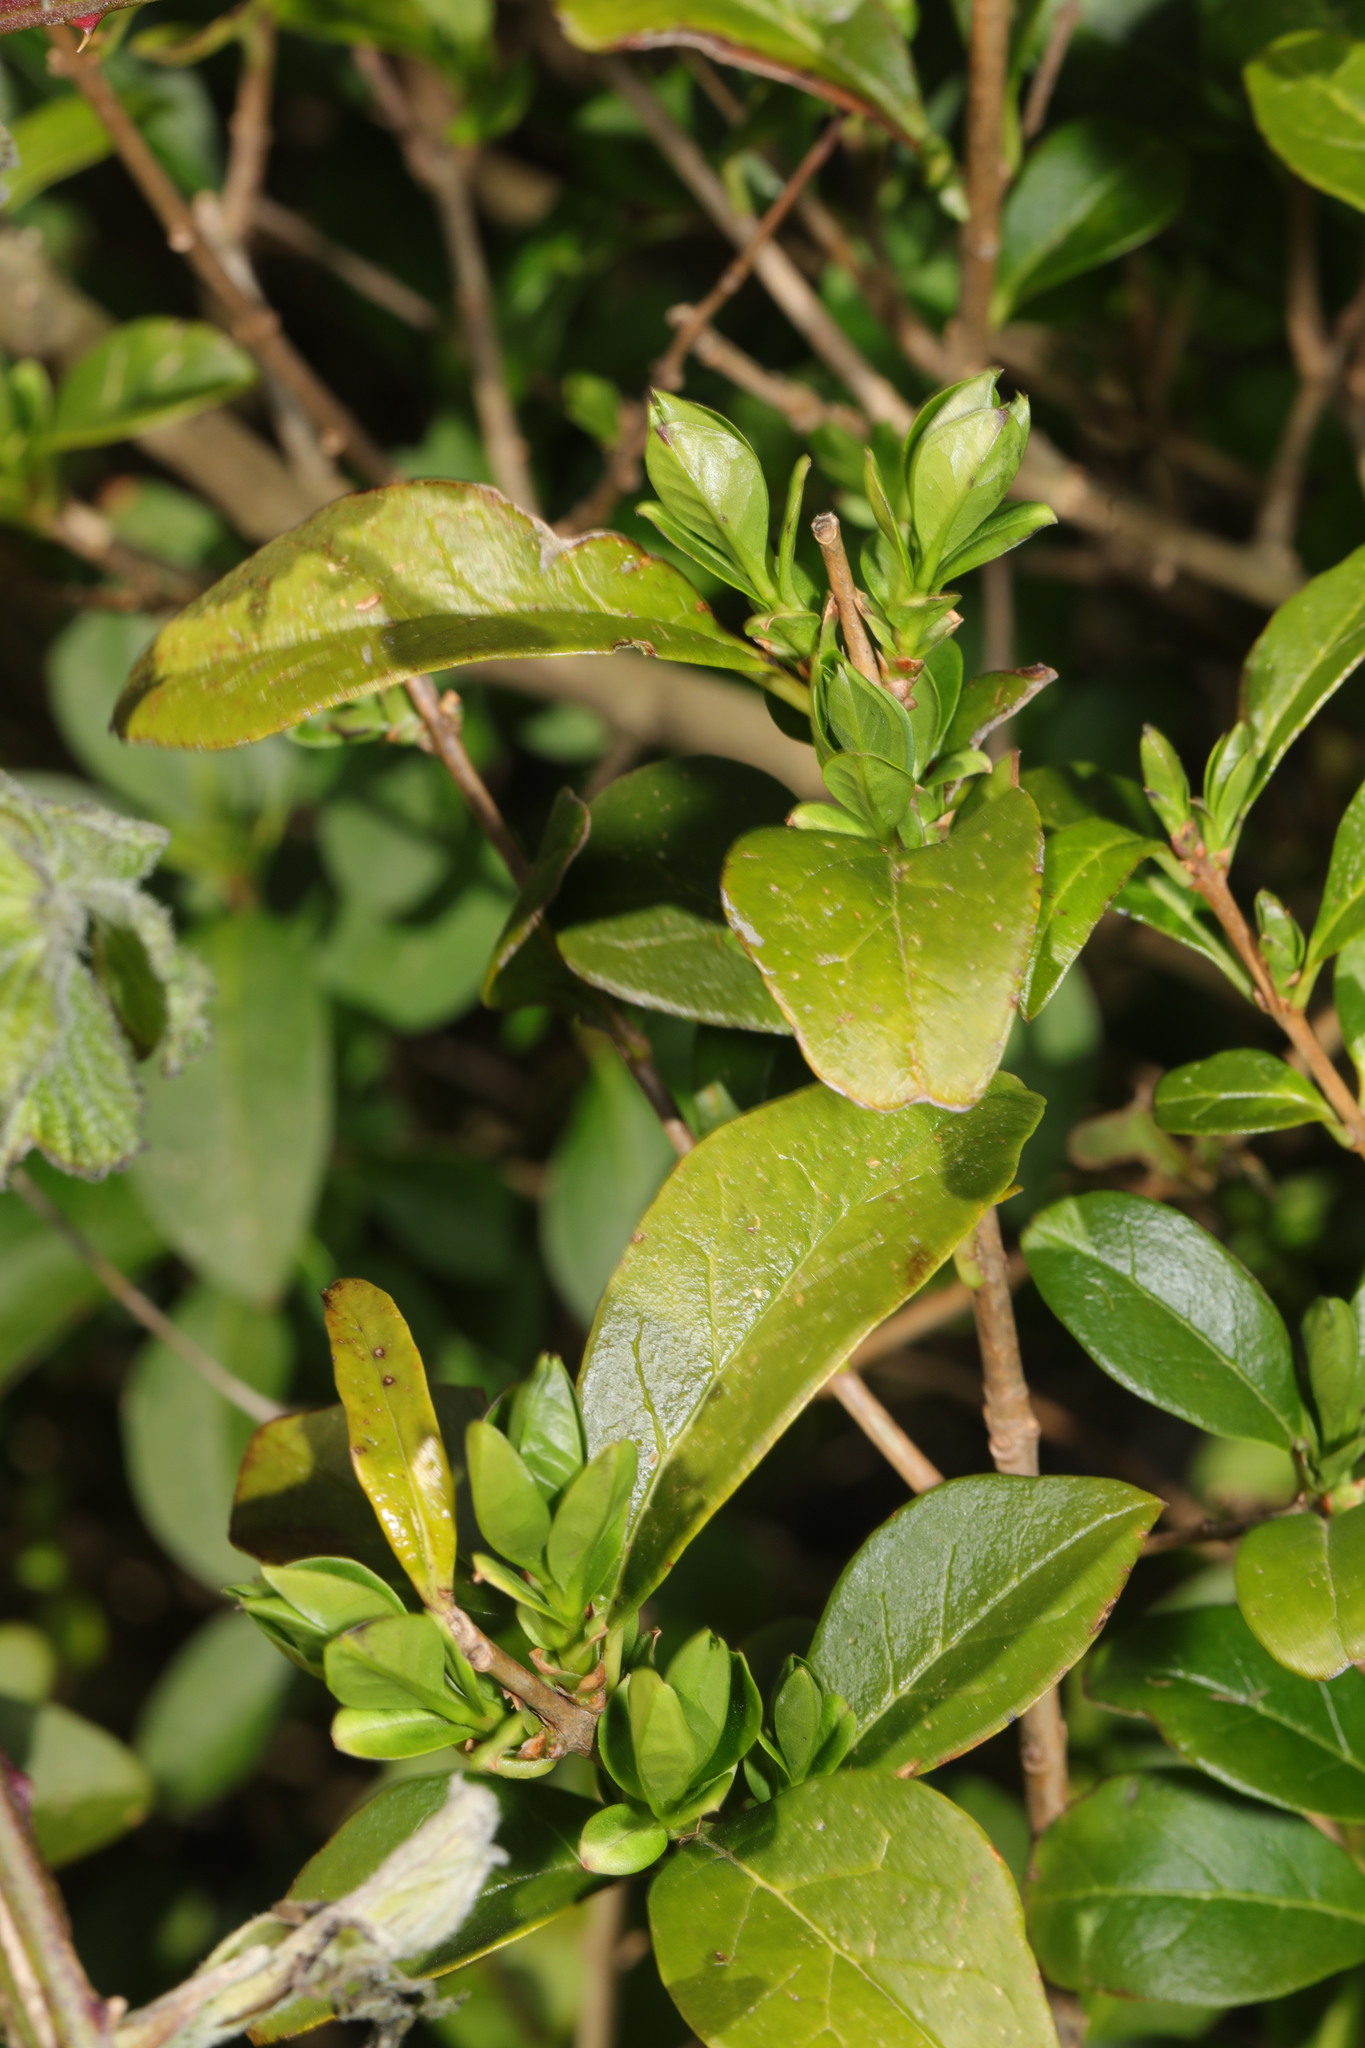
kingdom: Plantae
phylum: Tracheophyta
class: Magnoliopsida
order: Lamiales
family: Oleaceae
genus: Ligustrum
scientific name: Ligustrum ovalifolium
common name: California privet
